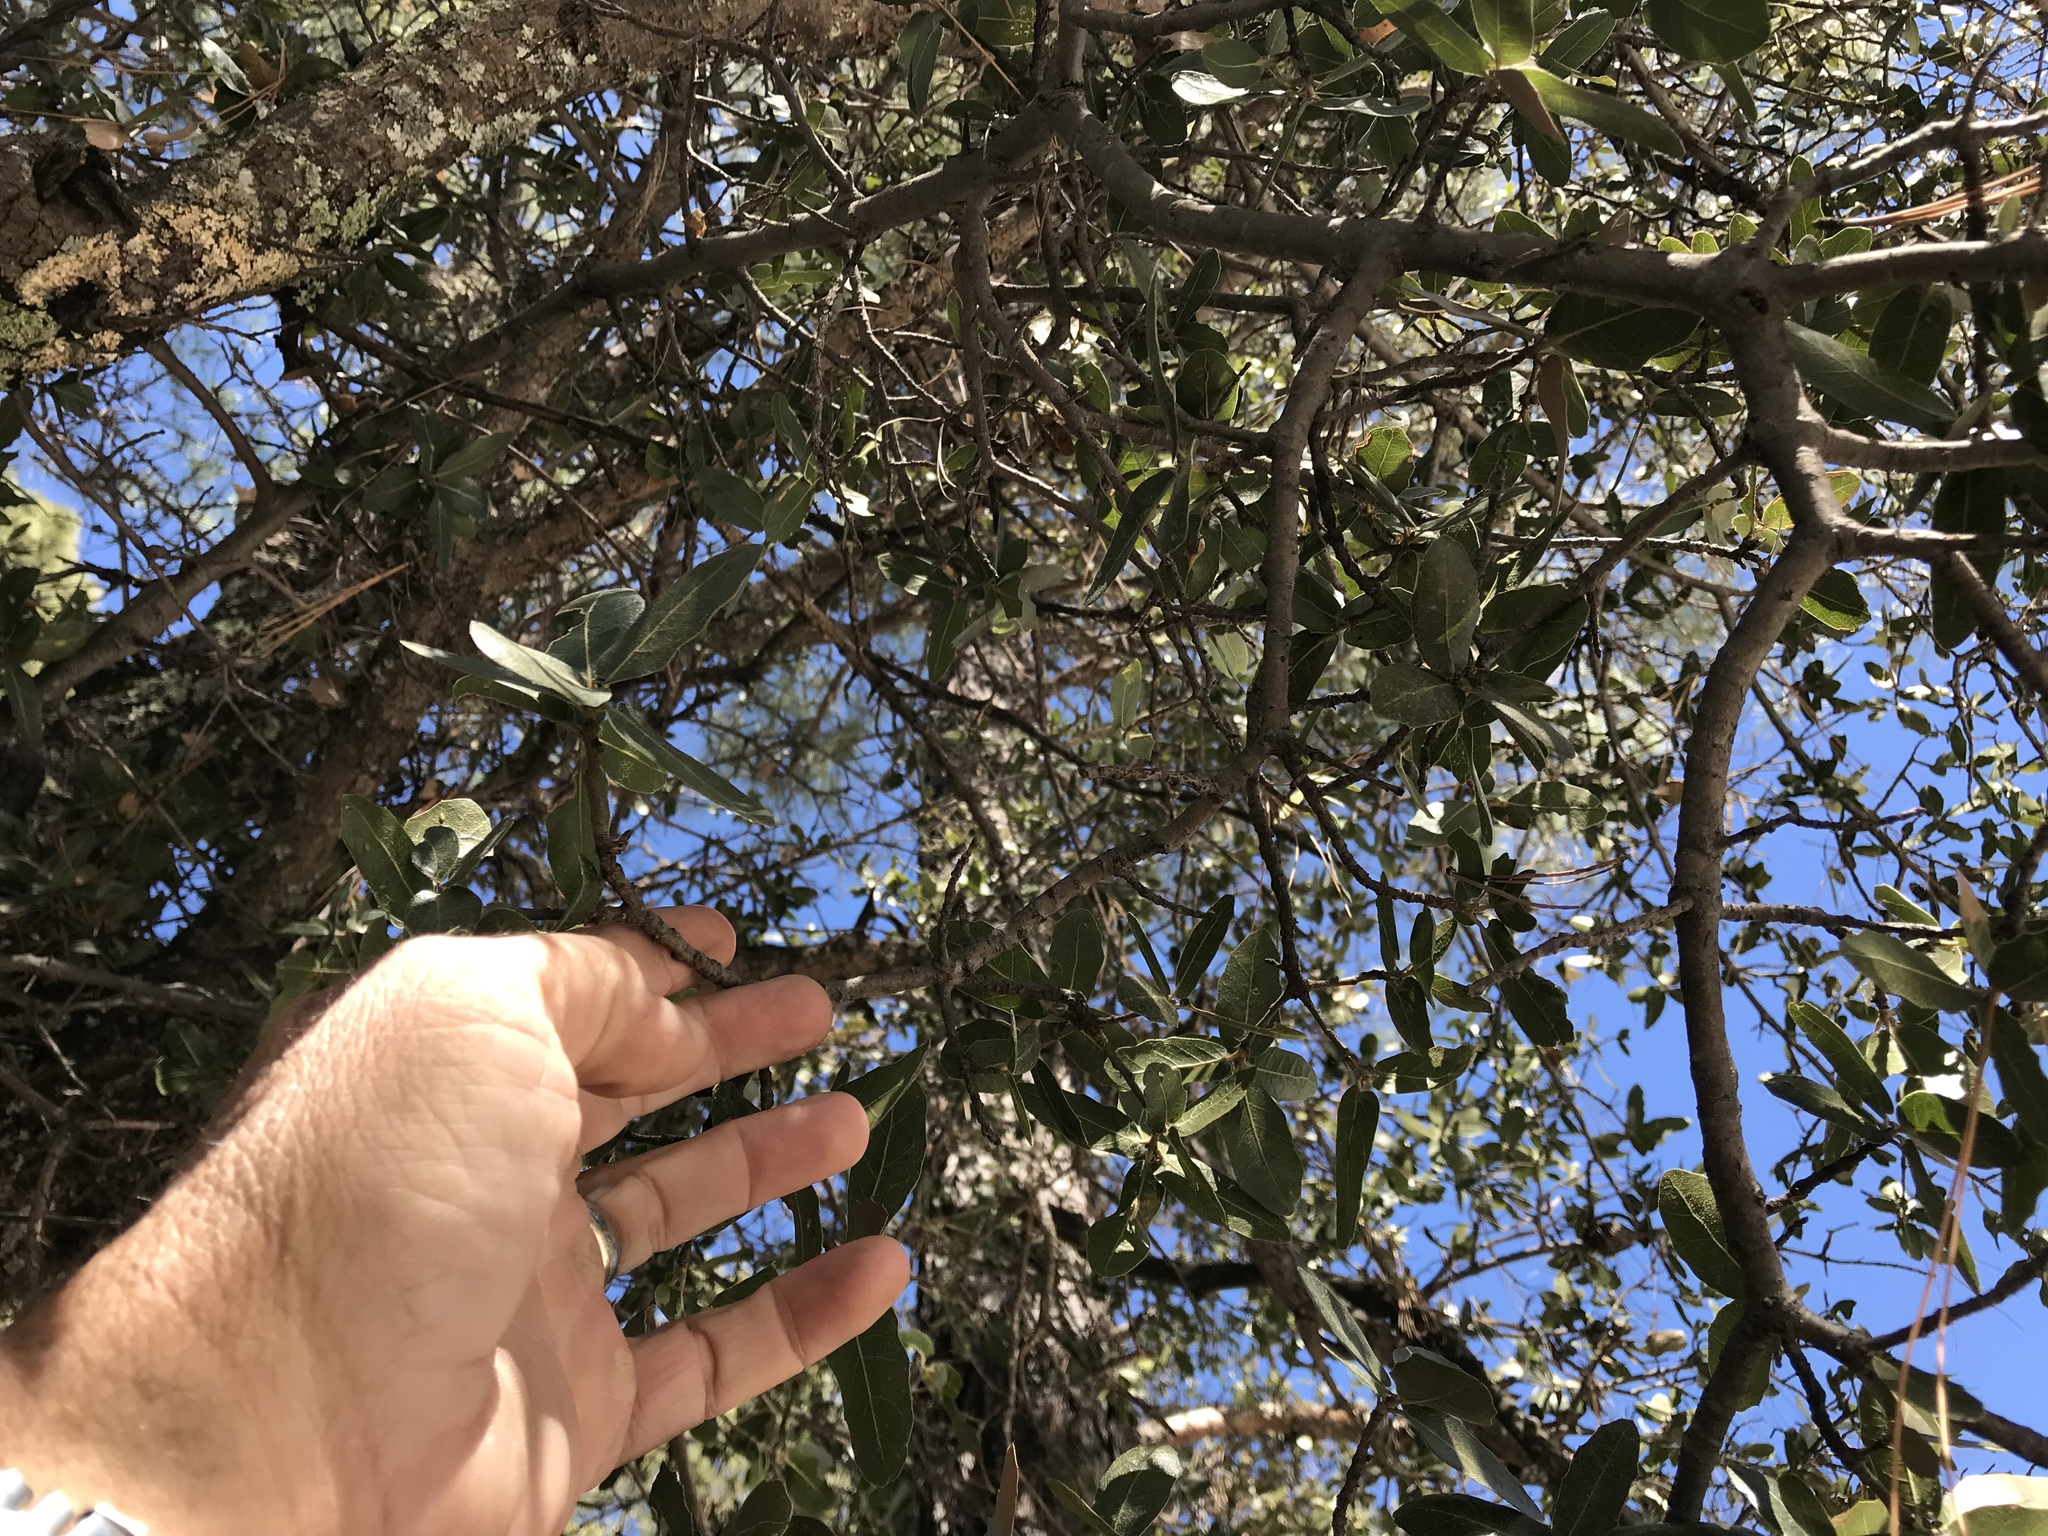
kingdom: Plantae
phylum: Tracheophyta
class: Magnoliopsida
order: Fagales
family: Fagaceae
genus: Quercus
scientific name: Quercus arizonica
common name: Arizona white oak
